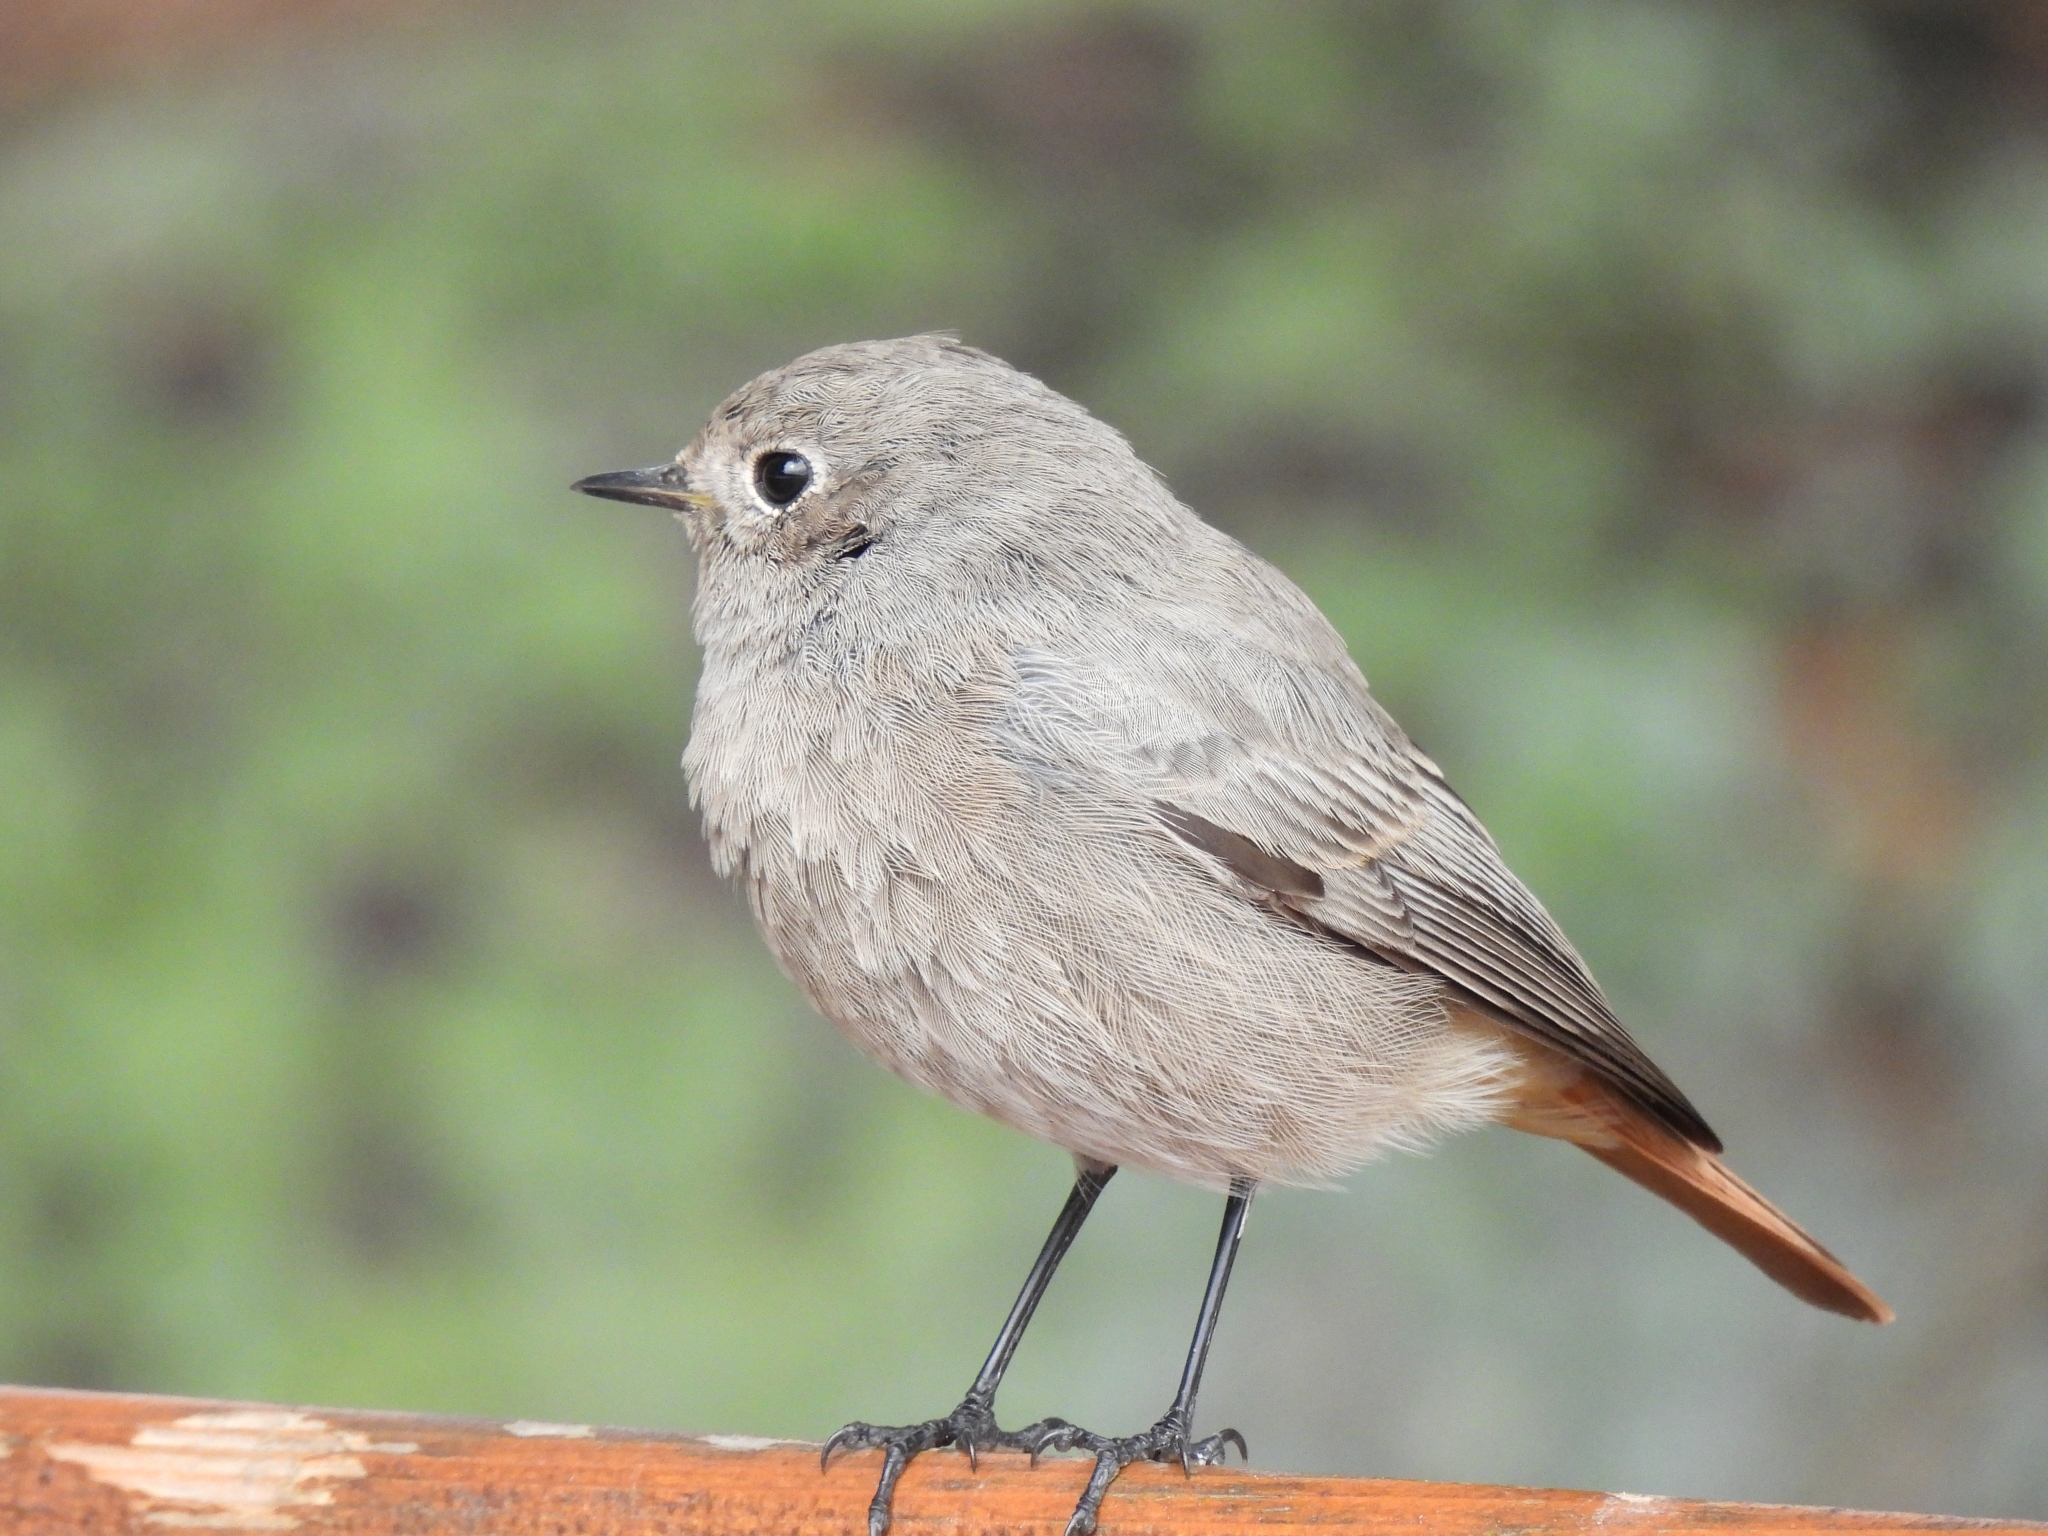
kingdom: Animalia
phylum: Chordata
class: Aves
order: Passeriformes
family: Muscicapidae
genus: Phoenicurus
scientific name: Phoenicurus ochruros
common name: Black redstart
